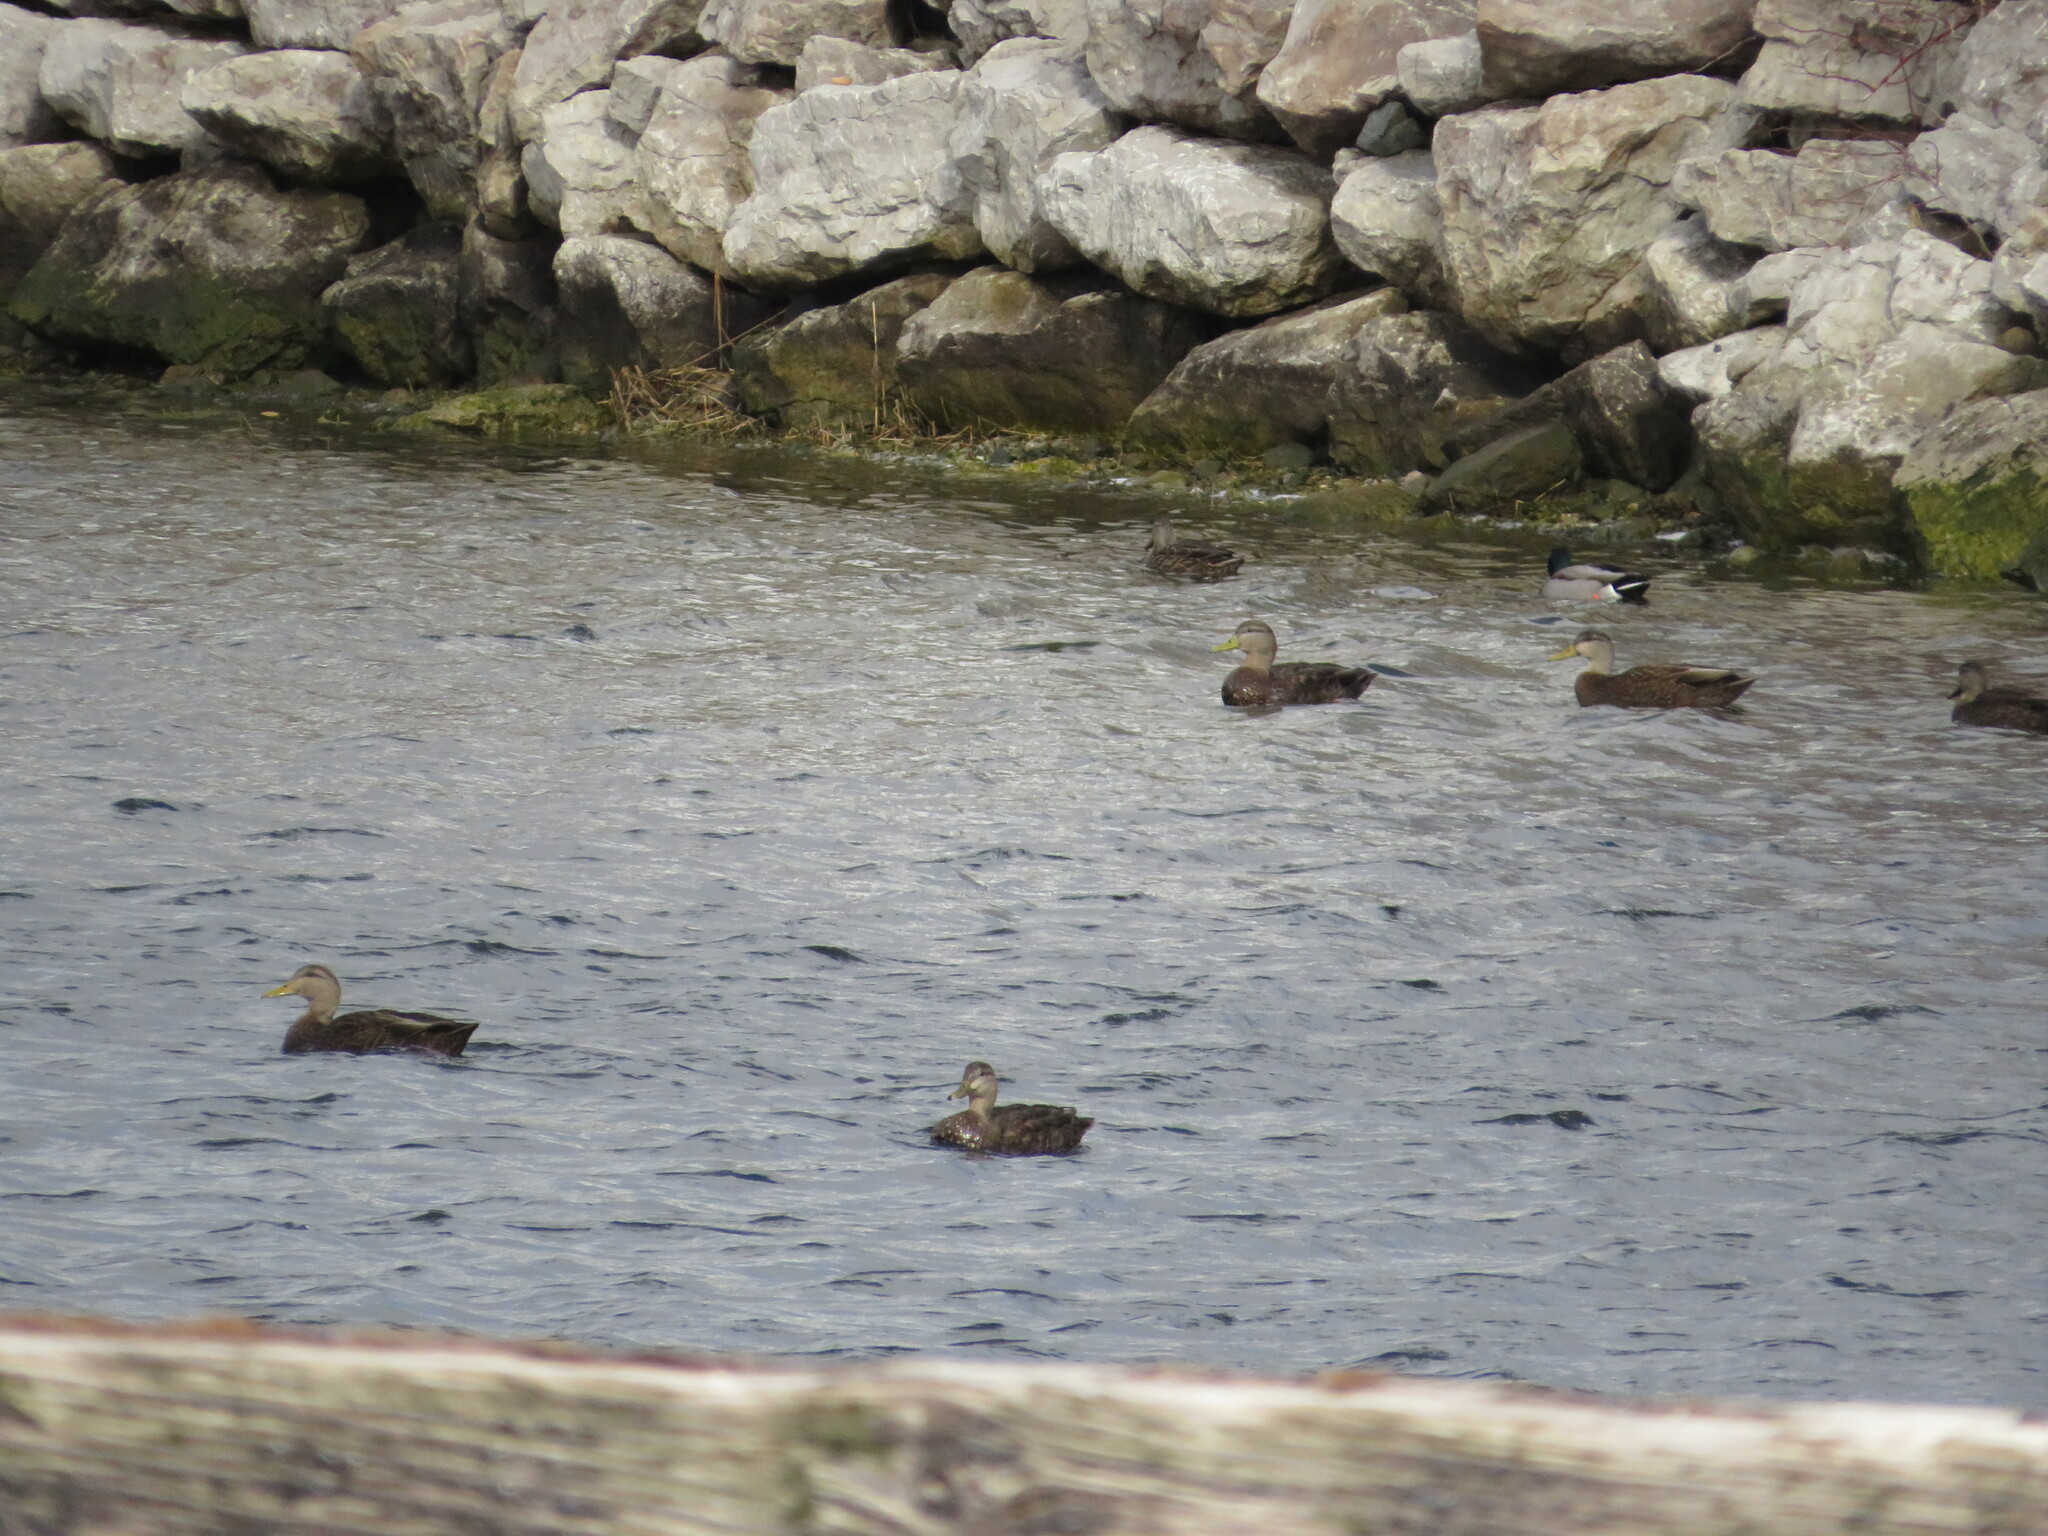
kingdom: Animalia
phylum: Chordata
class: Aves
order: Anseriformes
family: Anatidae
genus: Anas
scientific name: Anas rubripes
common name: American black duck
